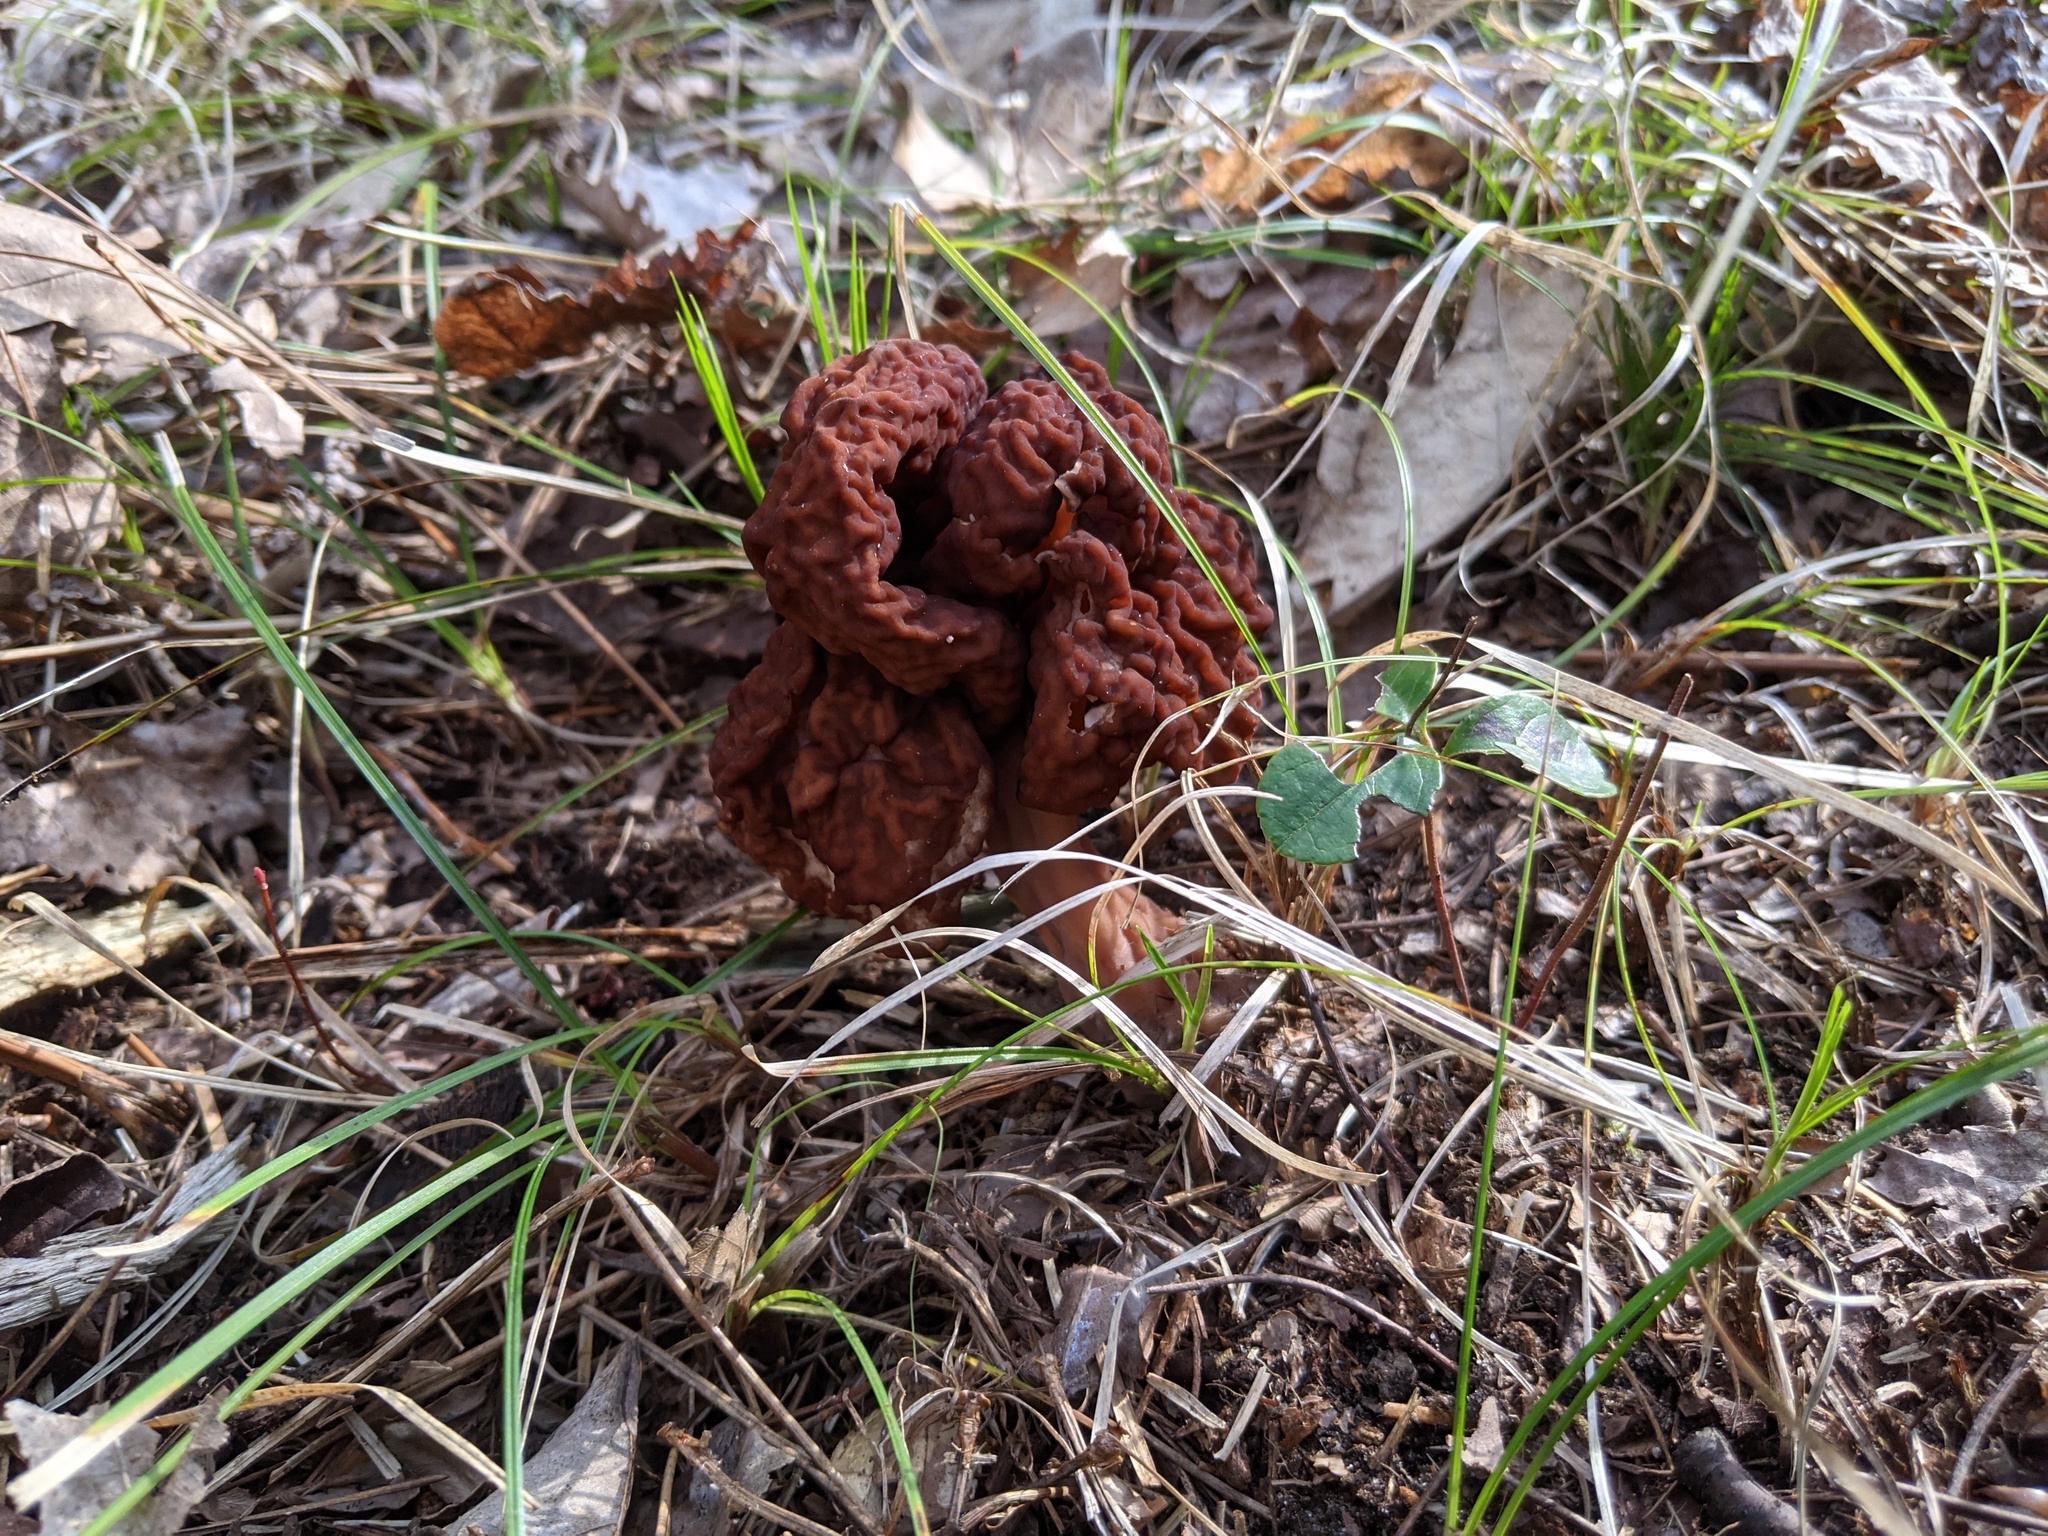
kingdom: Fungi
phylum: Ascomycota
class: Pezizomycetes
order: Pezizales
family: Discinaceae
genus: Gyromitra
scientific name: Gyromitra esculenta
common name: False morel
